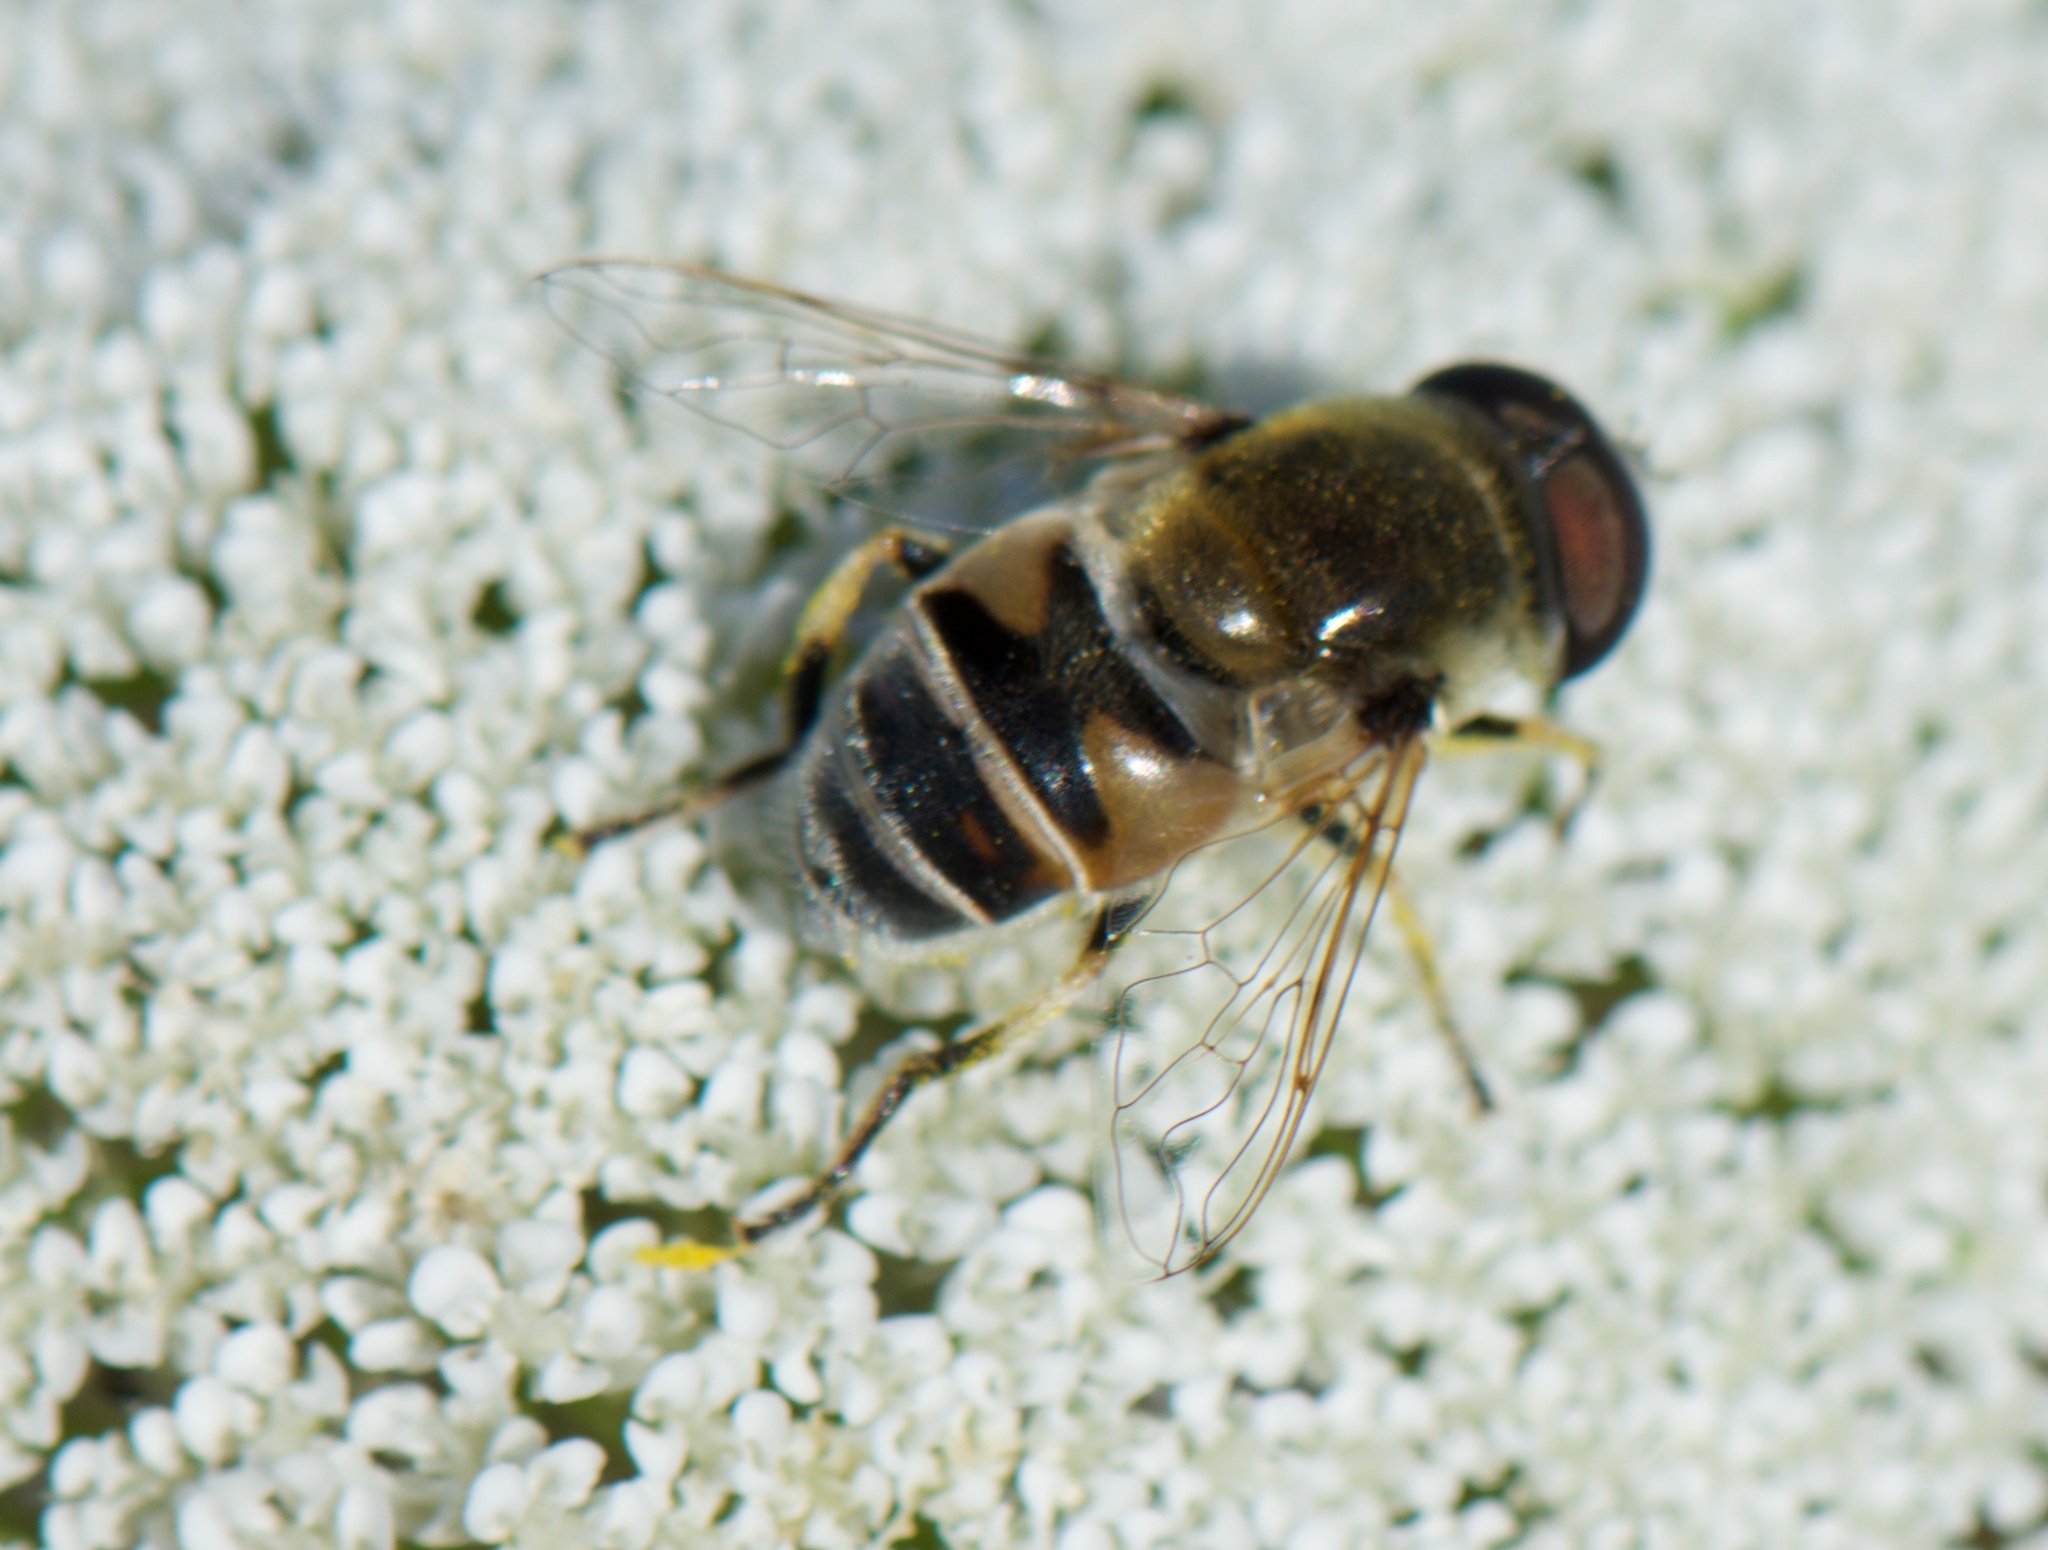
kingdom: Animalia
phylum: Arthropoda
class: Insecta
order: Diptera
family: Syrphidae
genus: Eristalis
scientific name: Eristalis hirta
